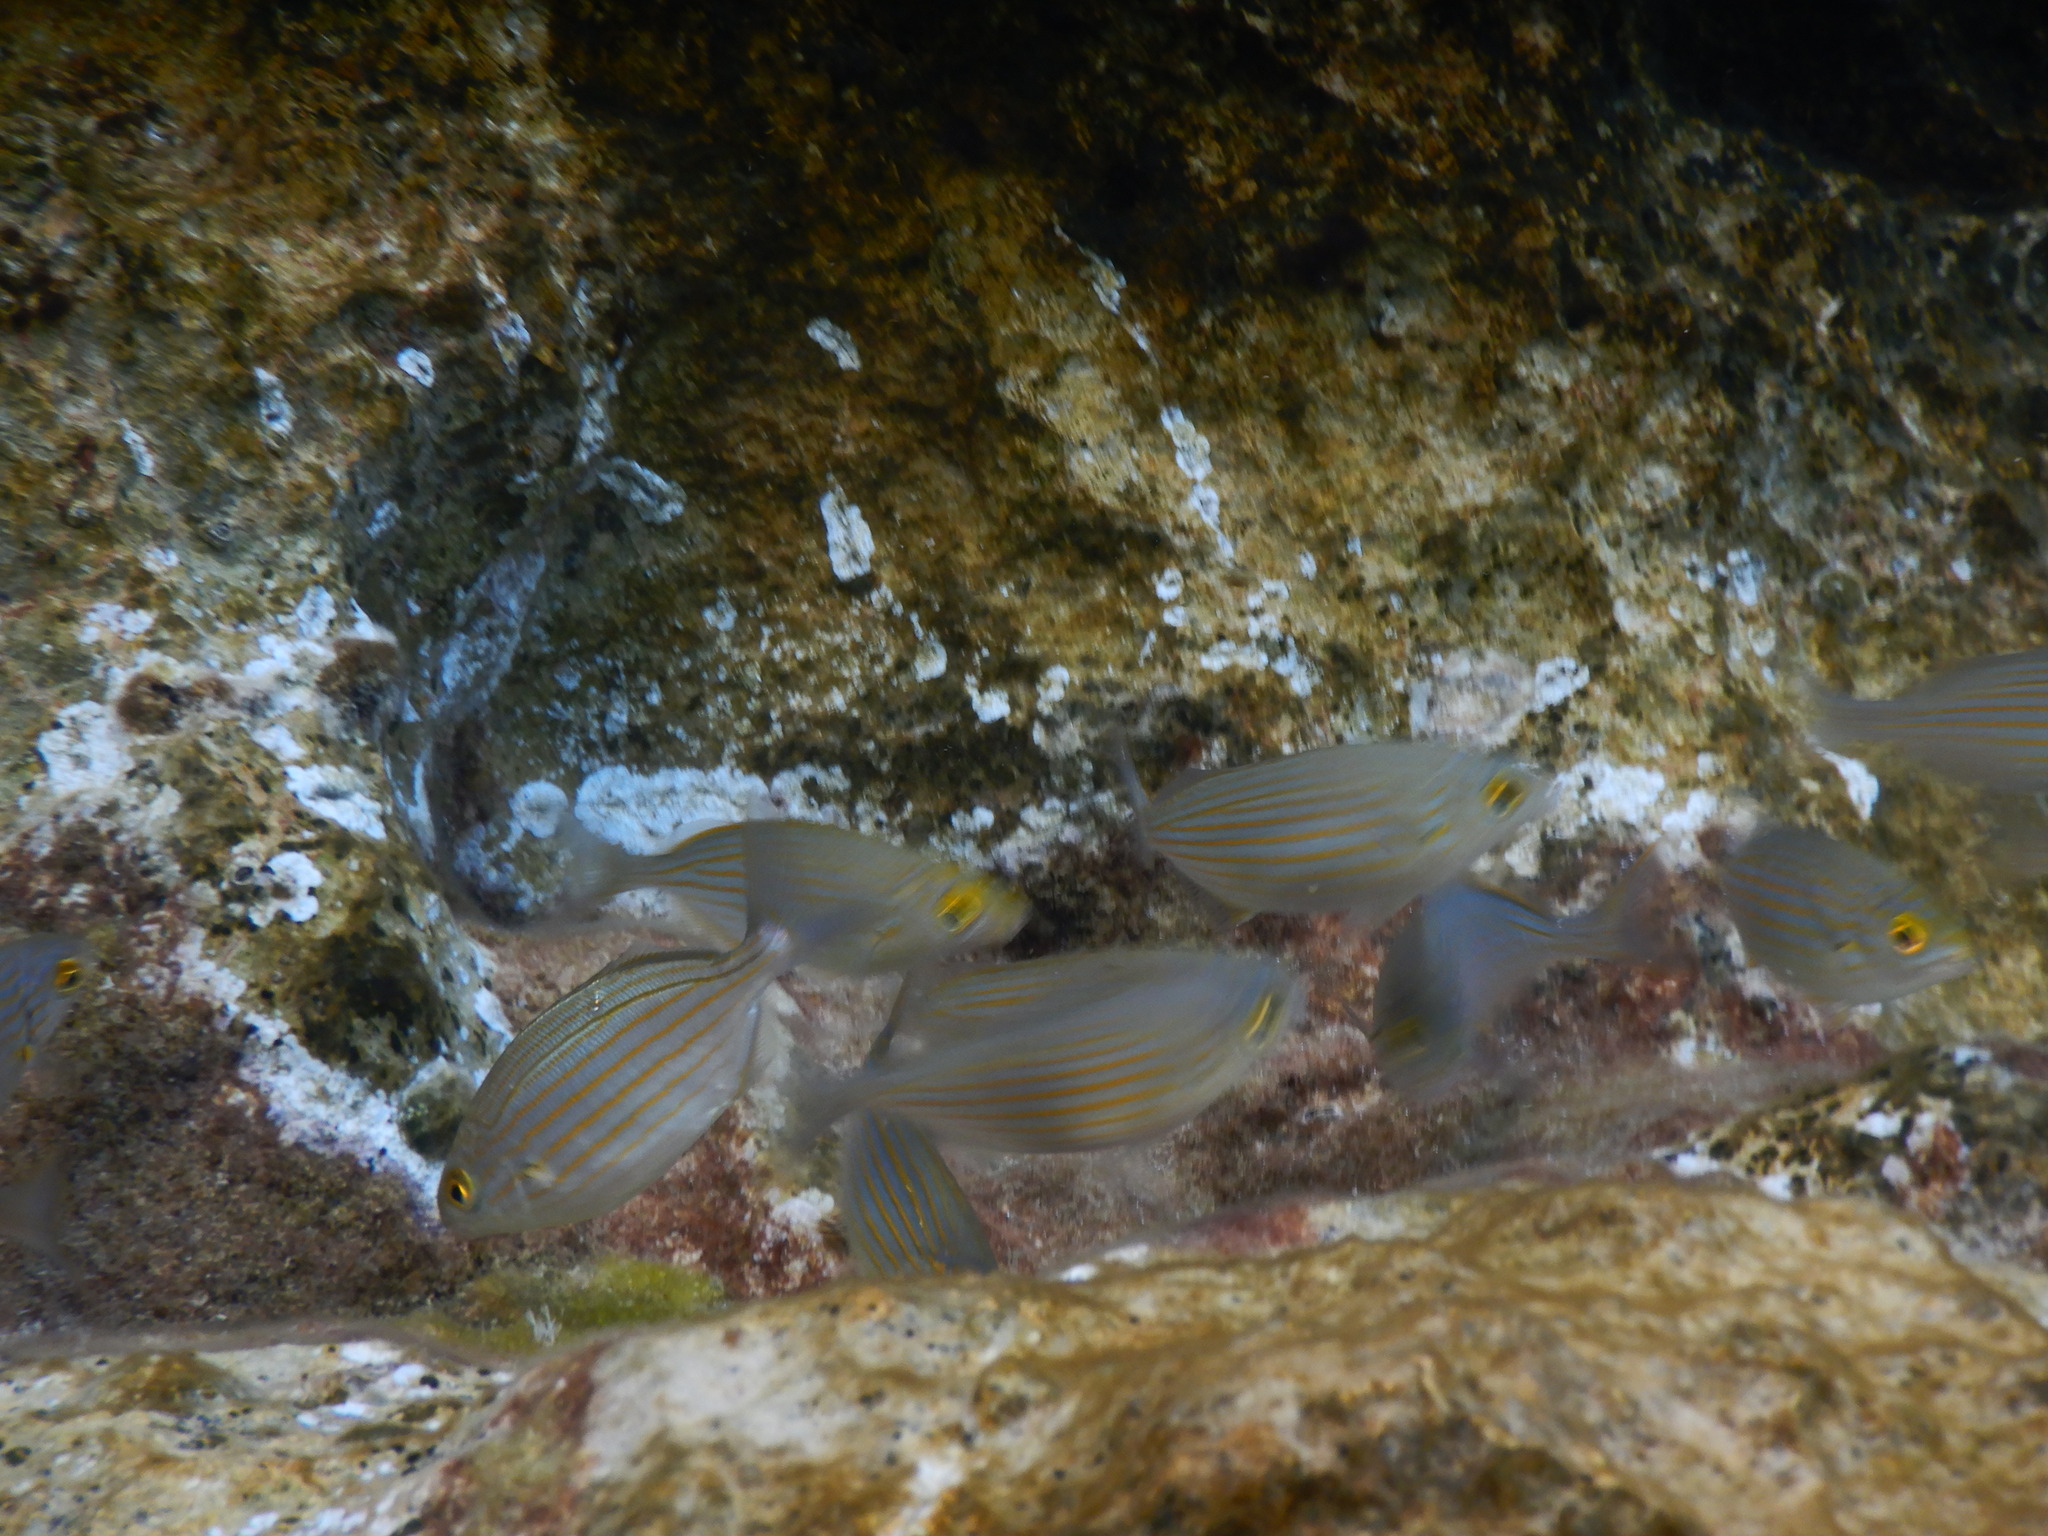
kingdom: Animalia
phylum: Chordata
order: Perciformes
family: Sparidae
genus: Sarpa
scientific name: Sarpa salpa
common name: Salema
